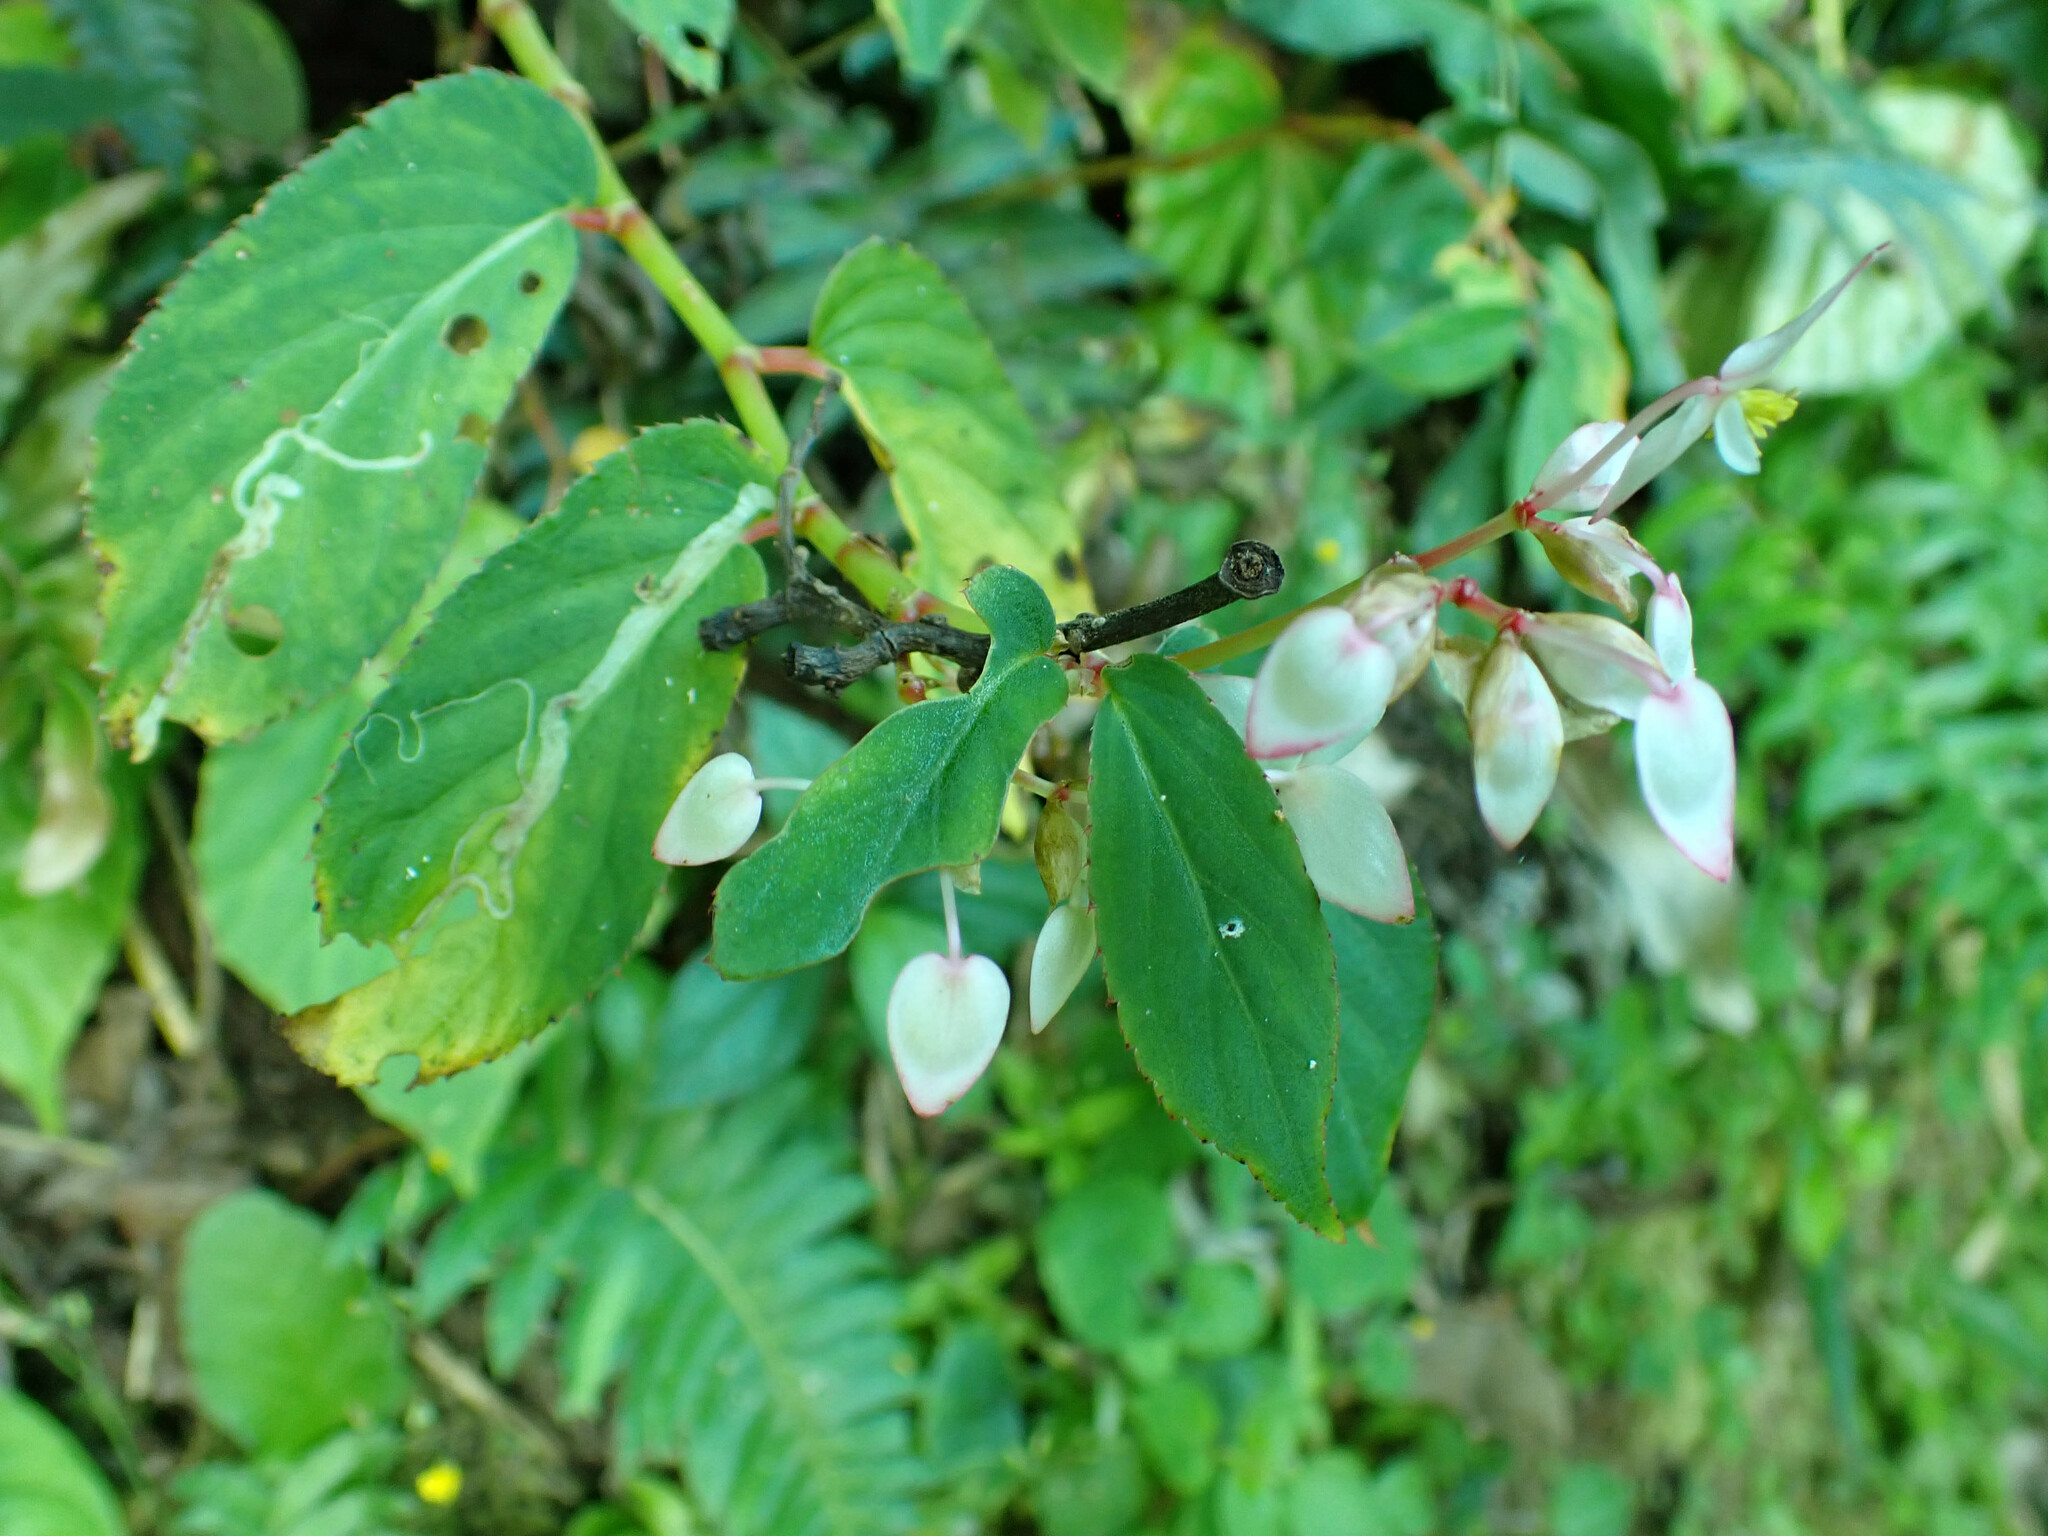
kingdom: Plantae
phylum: Tracheophyta
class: Magnoliopsida
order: Cucurbitales
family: Begoniaceae
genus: Begonia
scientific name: Begonia guaduensis
